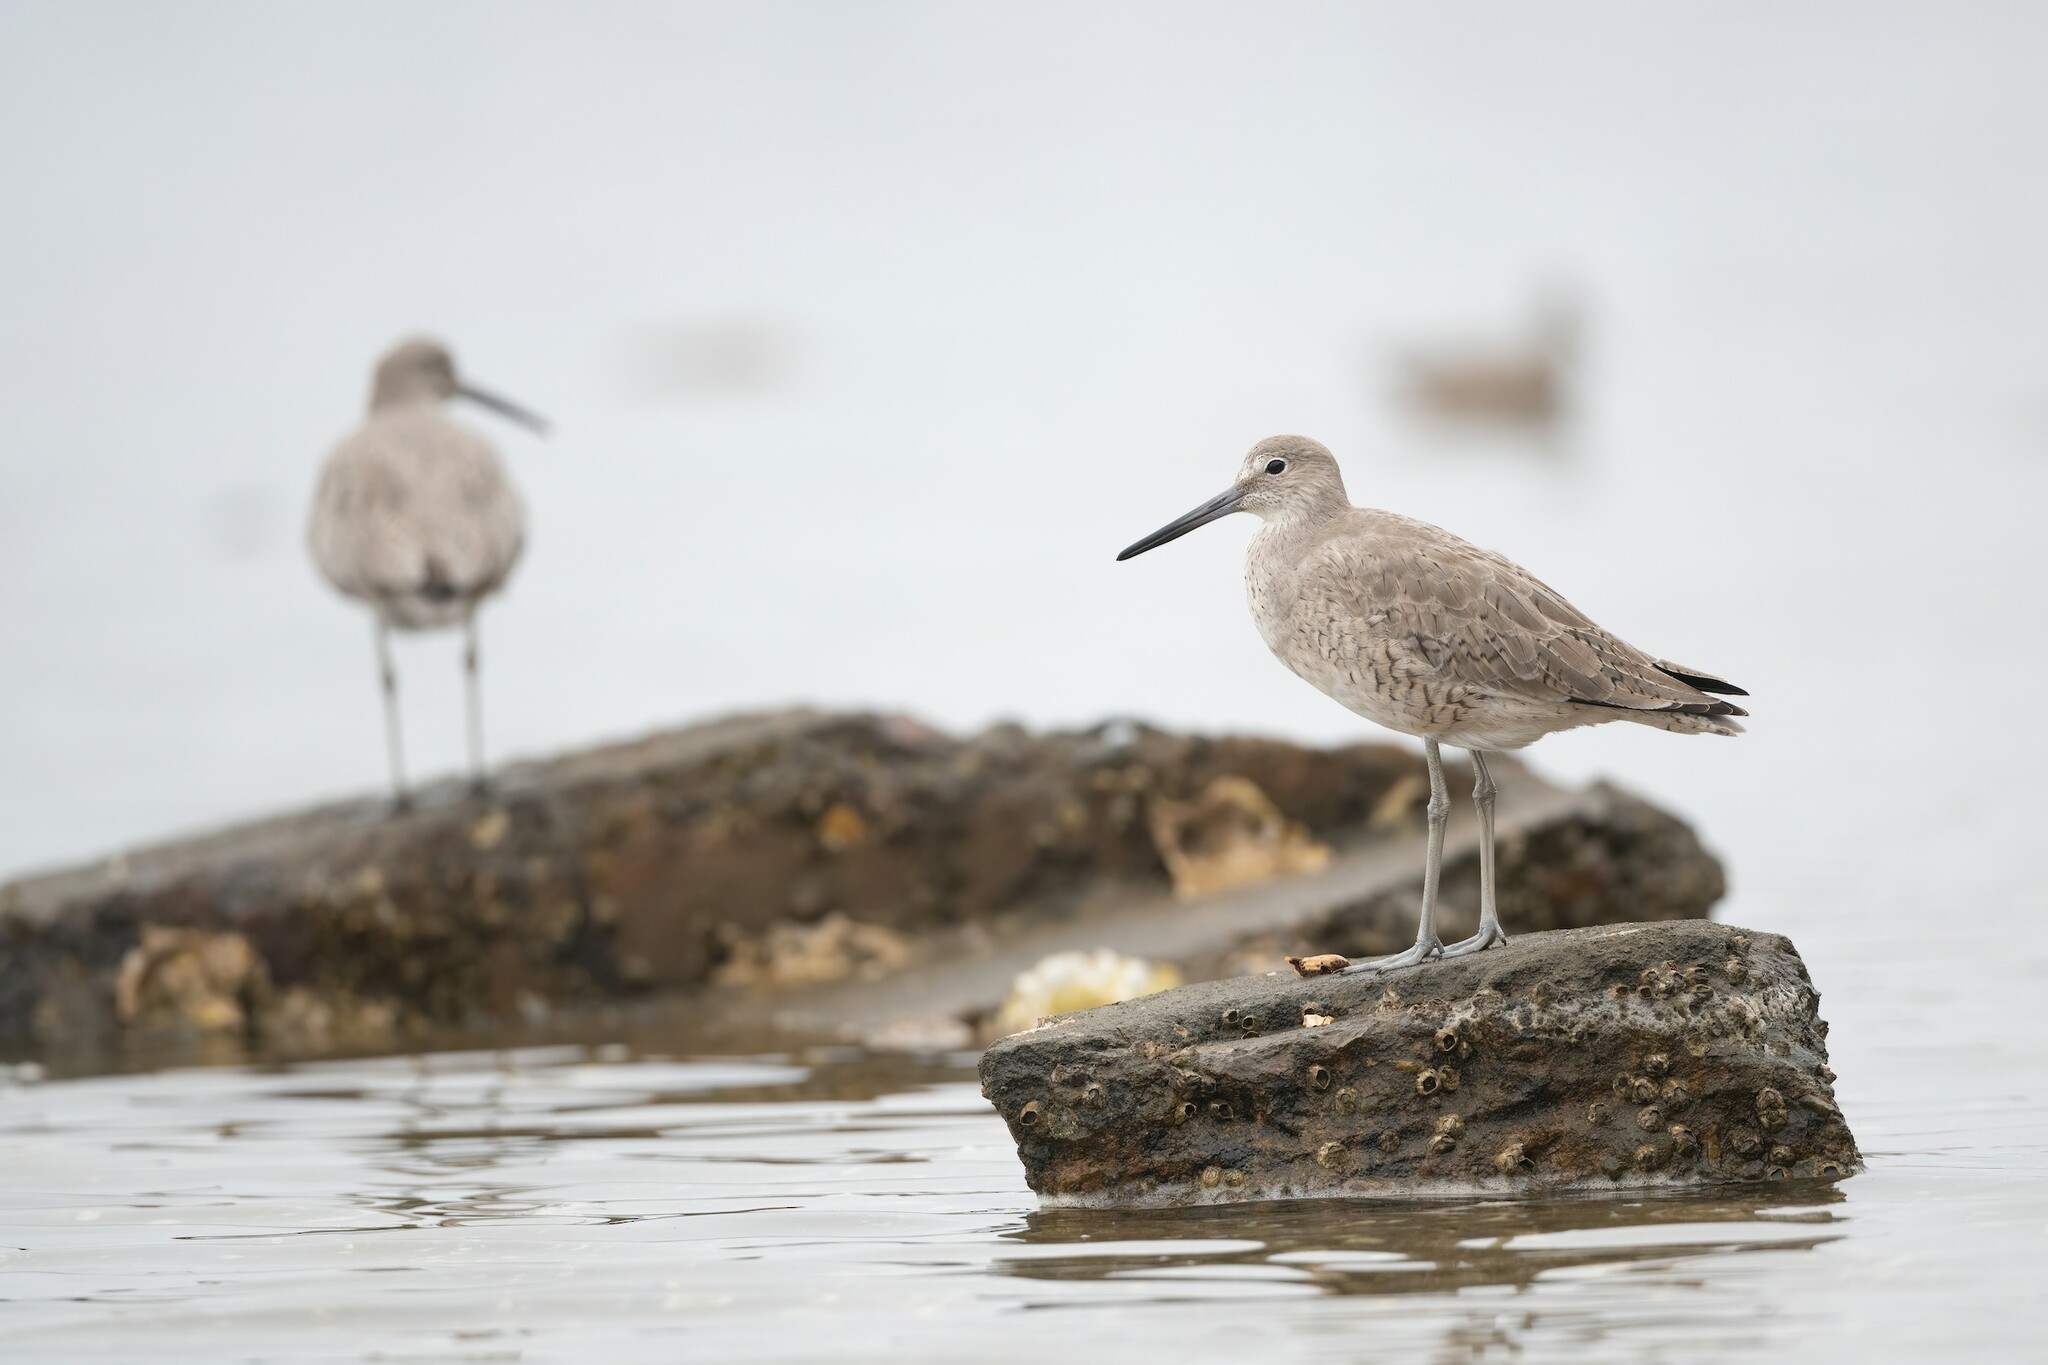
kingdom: Animalia
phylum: Chordata
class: Aves
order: Charadriiformes
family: Scolopacidae
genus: Tringa
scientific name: Tringa semipalmata
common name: Willet
